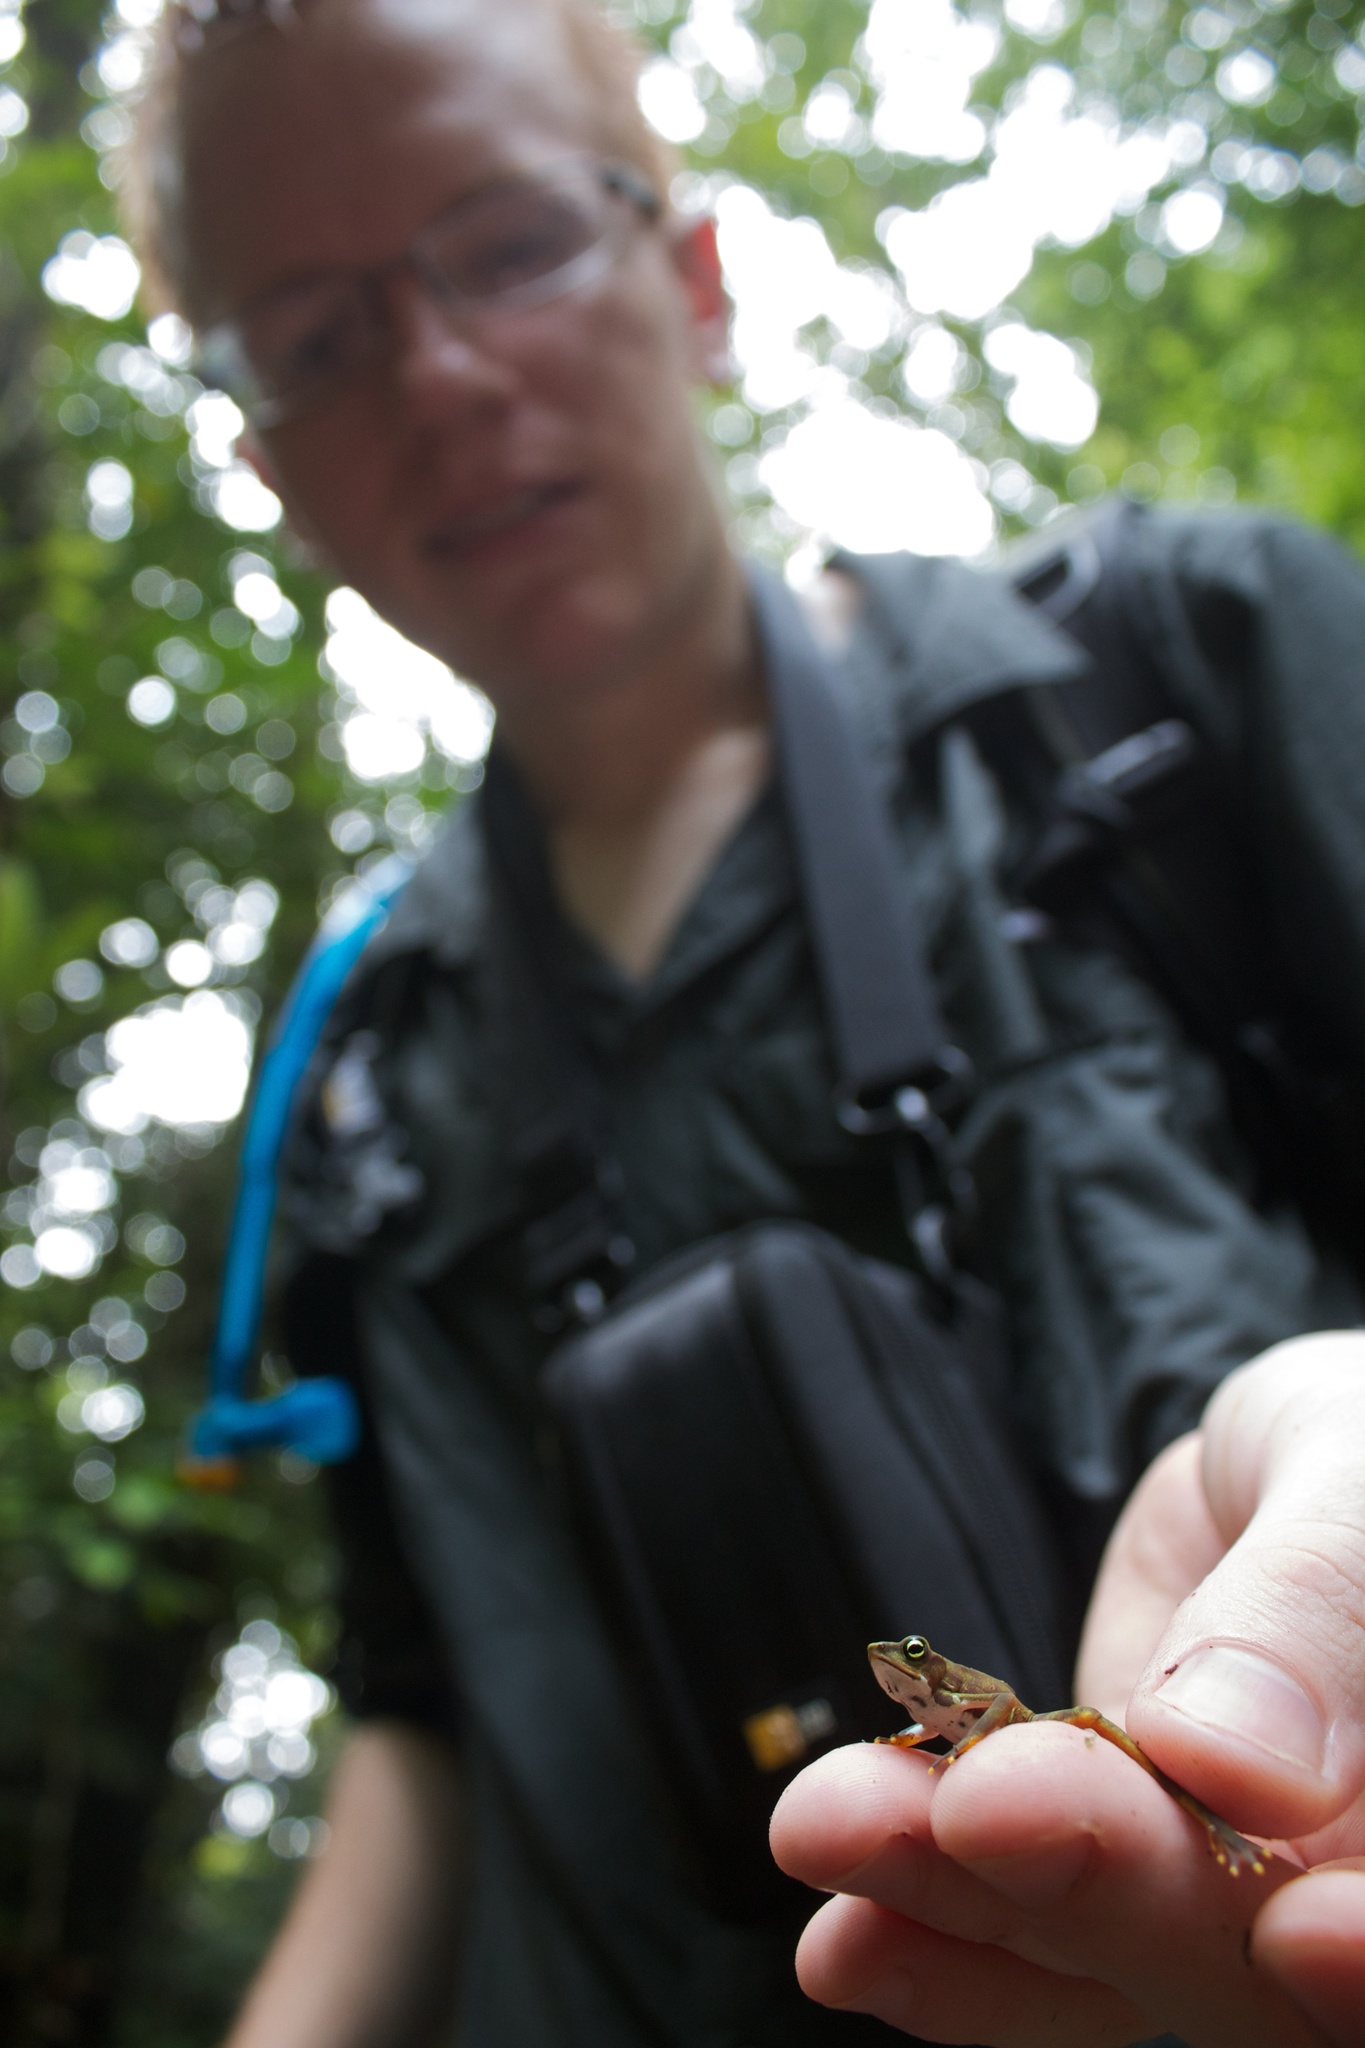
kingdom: Animalia
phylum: Chordata
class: Amphibia
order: Anura
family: Bufonidae
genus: Atelopus
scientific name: Atelopus limosus
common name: Limosa harlequin frog
